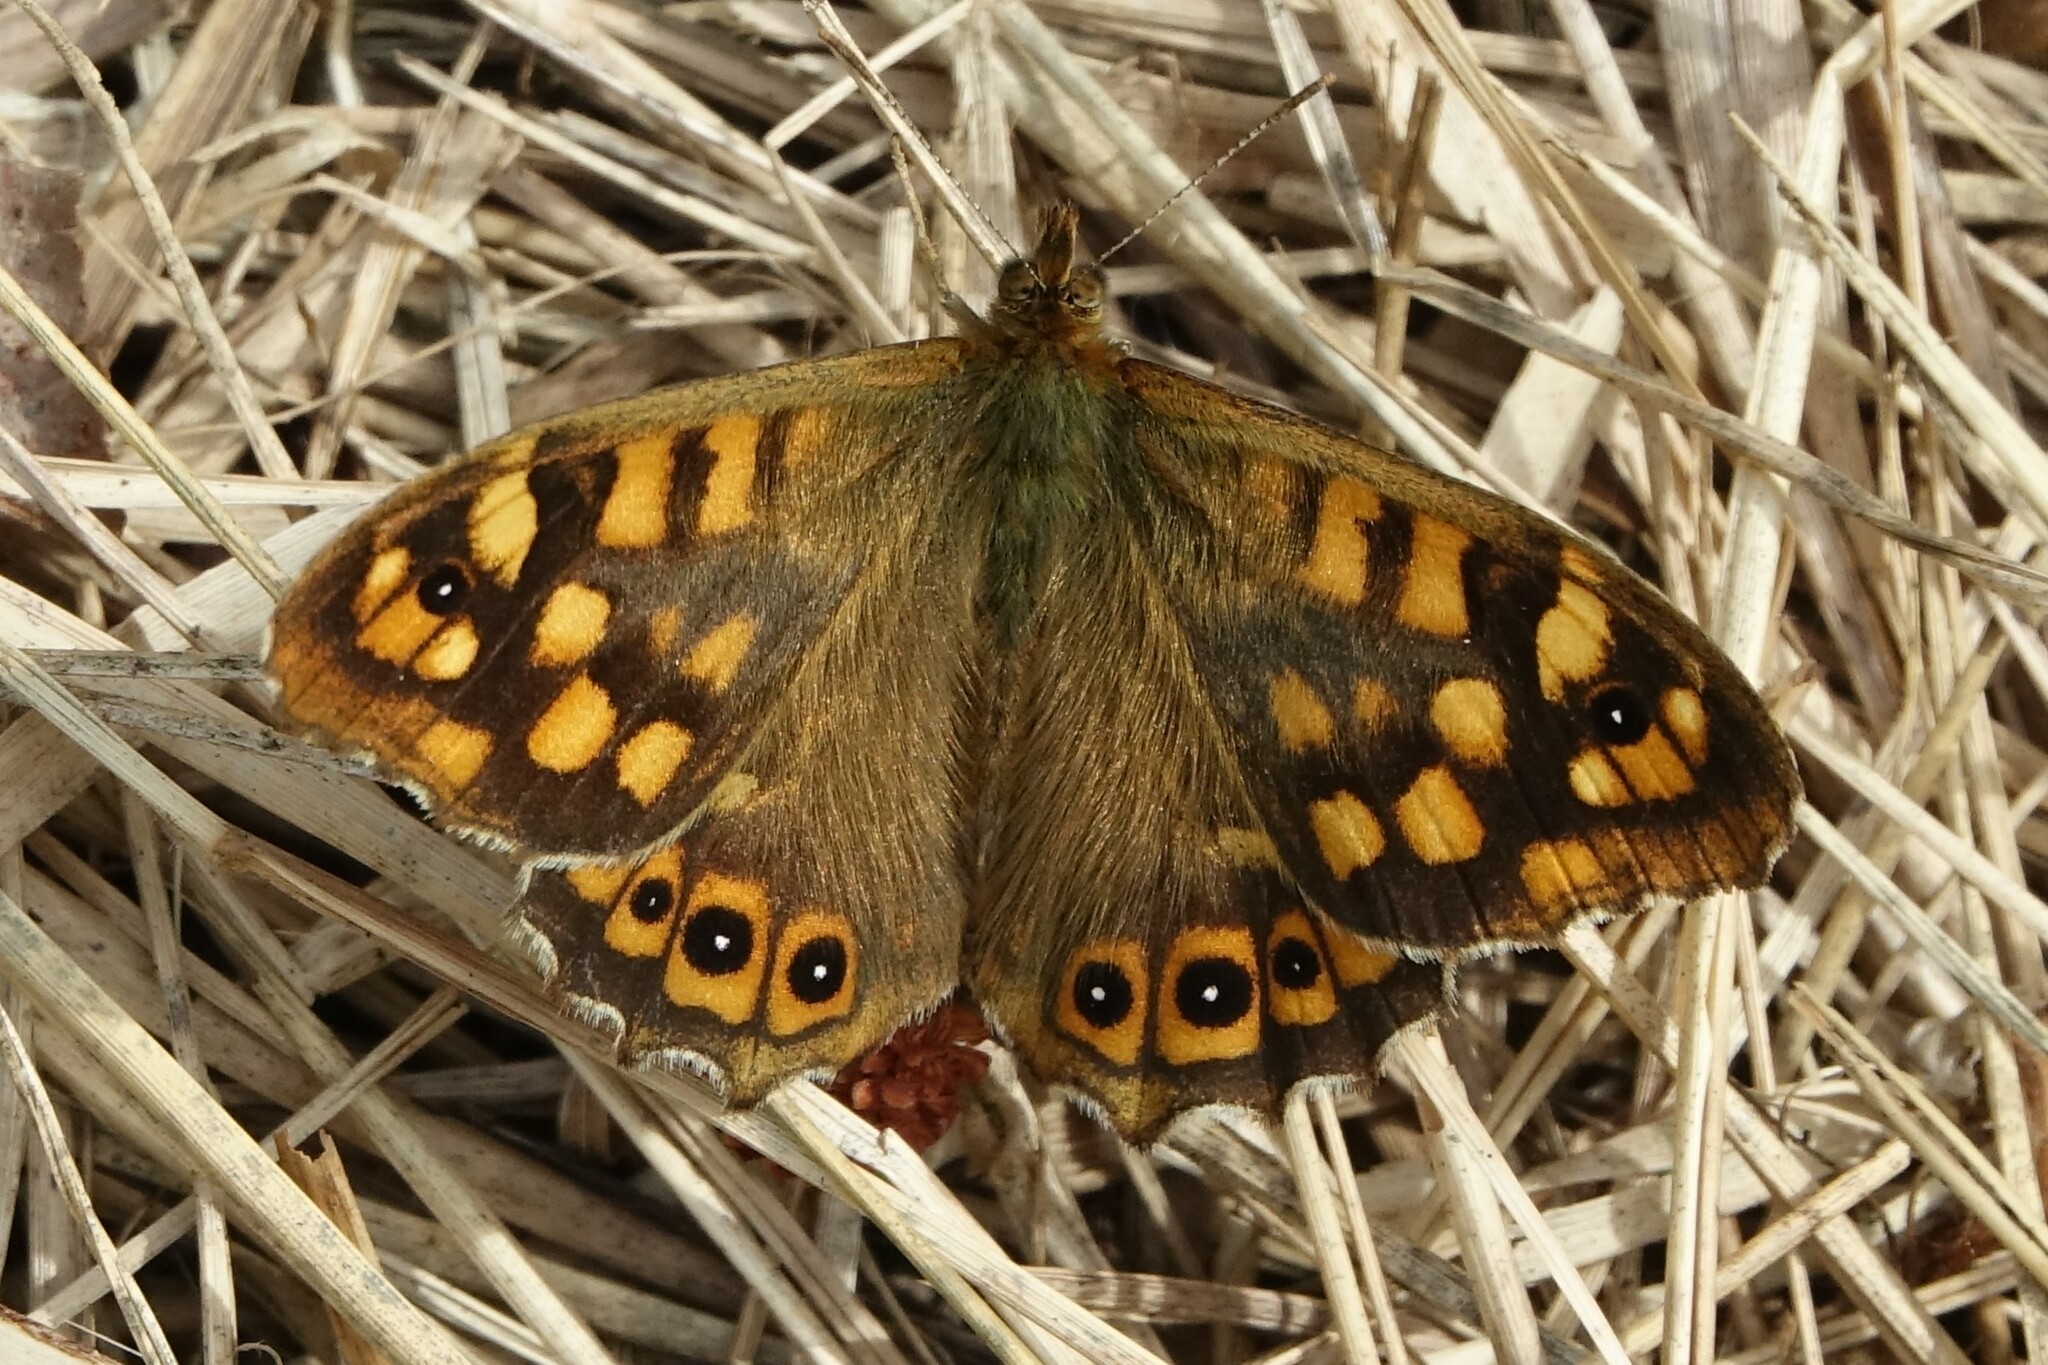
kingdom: Animalia
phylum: Arthropoda
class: Insecta
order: Lepidoptera
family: Nymphalidae
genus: Pararge
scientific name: Pararge aegeria
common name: Speckled wood
